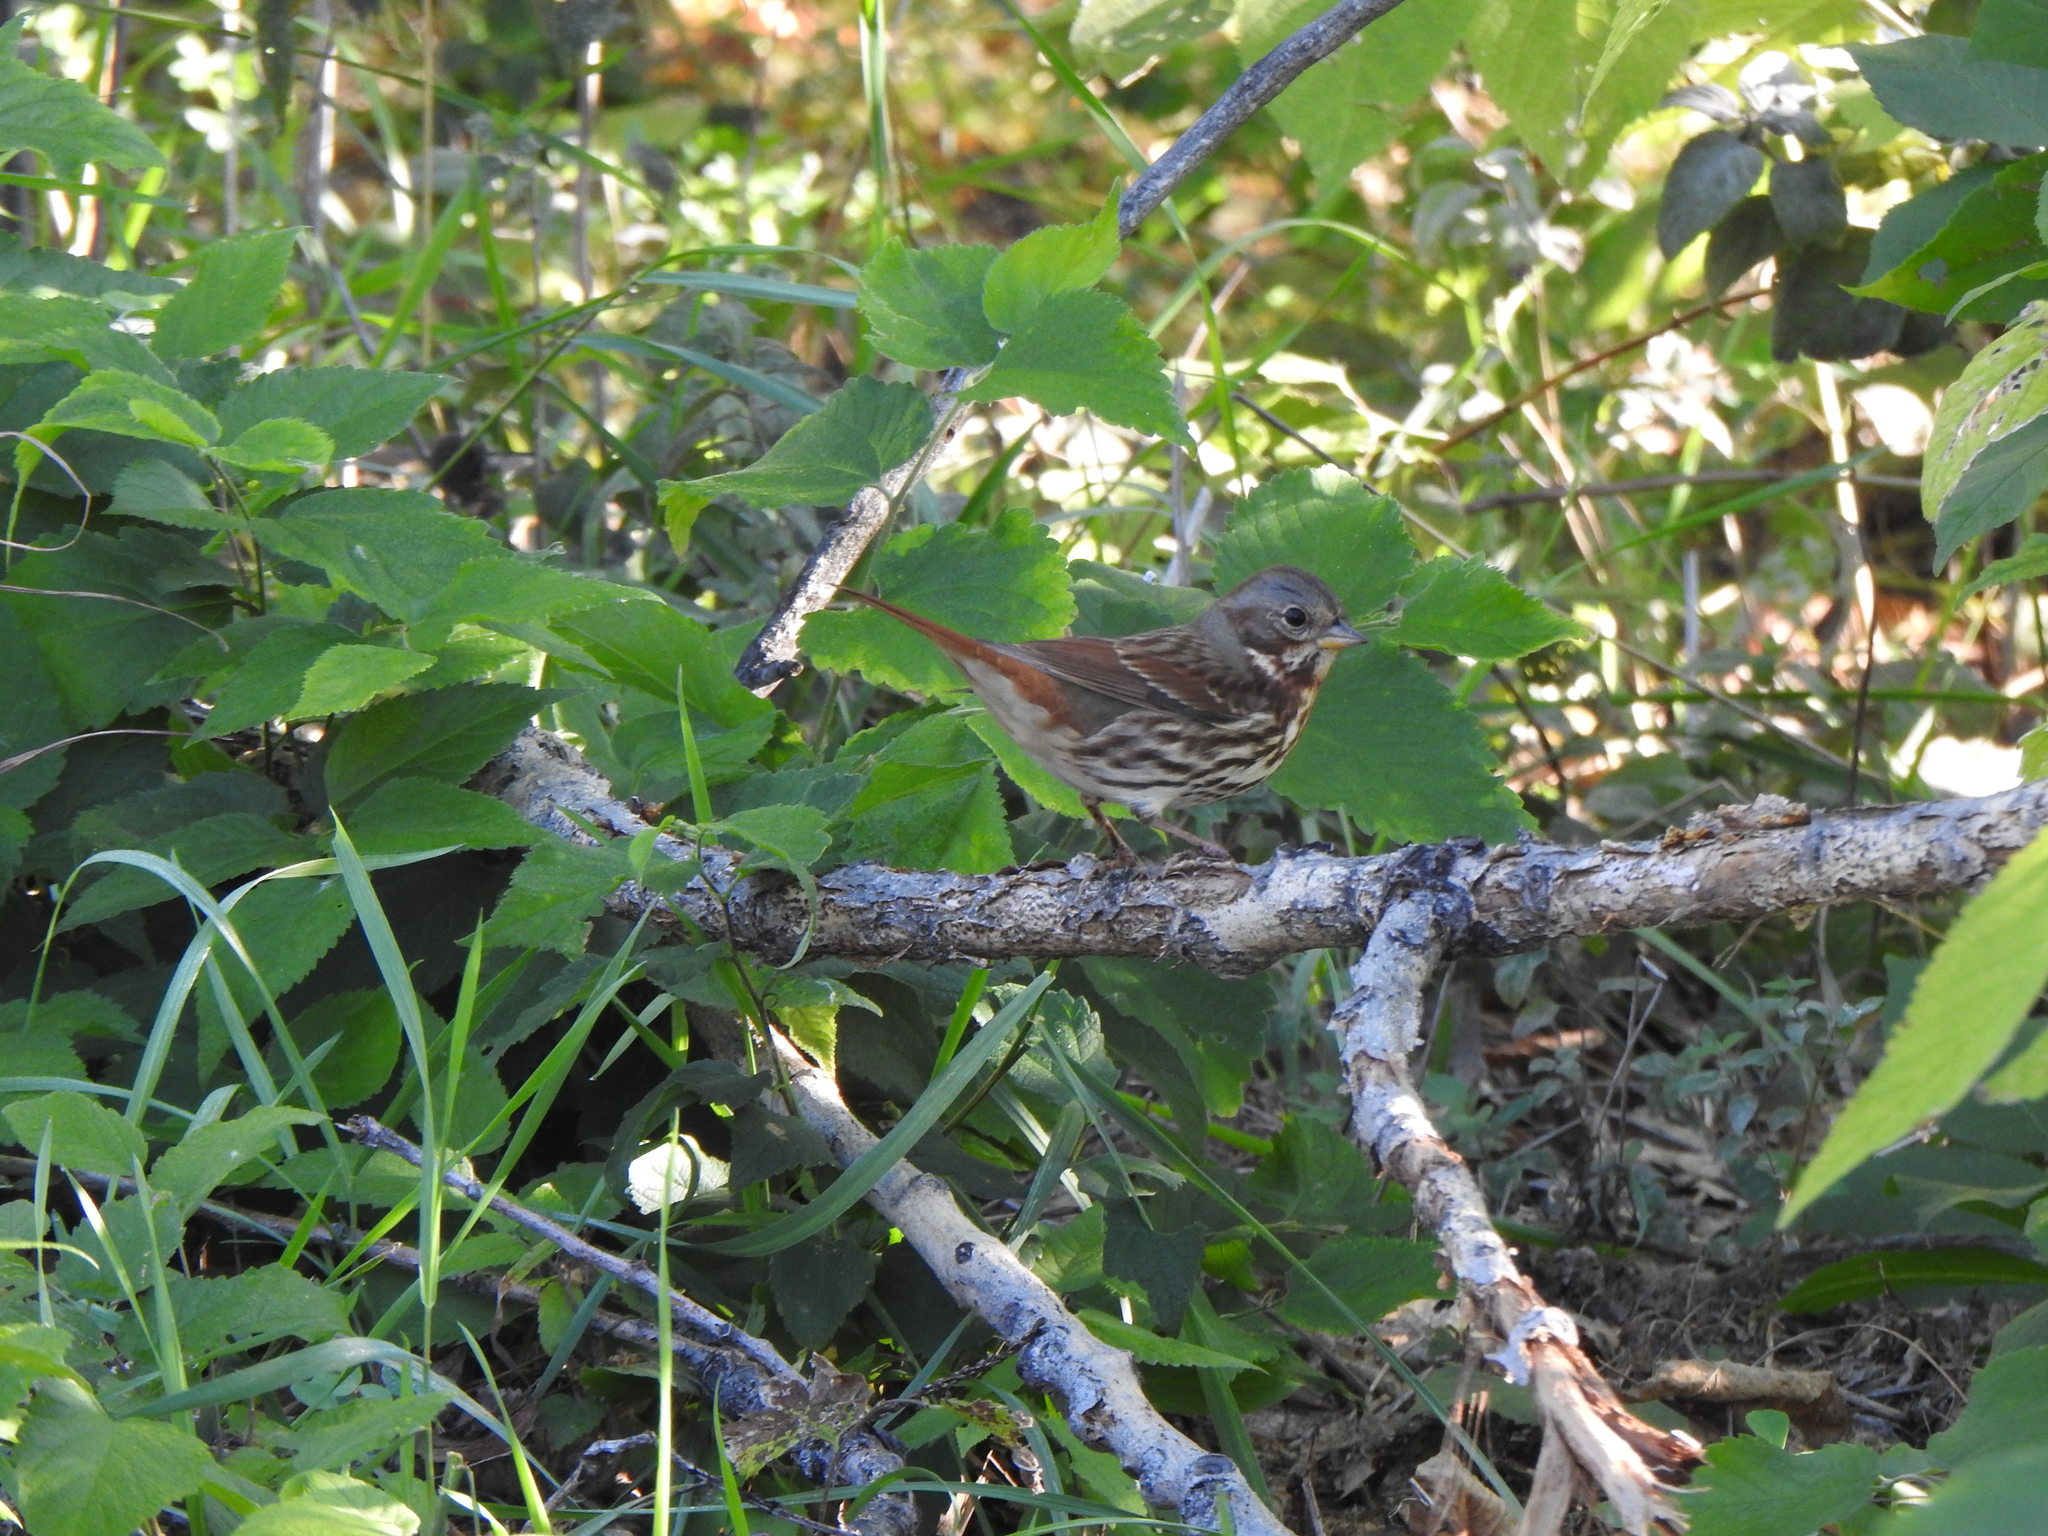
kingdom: Animalia
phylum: Chordata
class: Aves
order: Passeriformes
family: Passerellidae
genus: Passerella
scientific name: Passerella iliaca
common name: Fox sparrow
